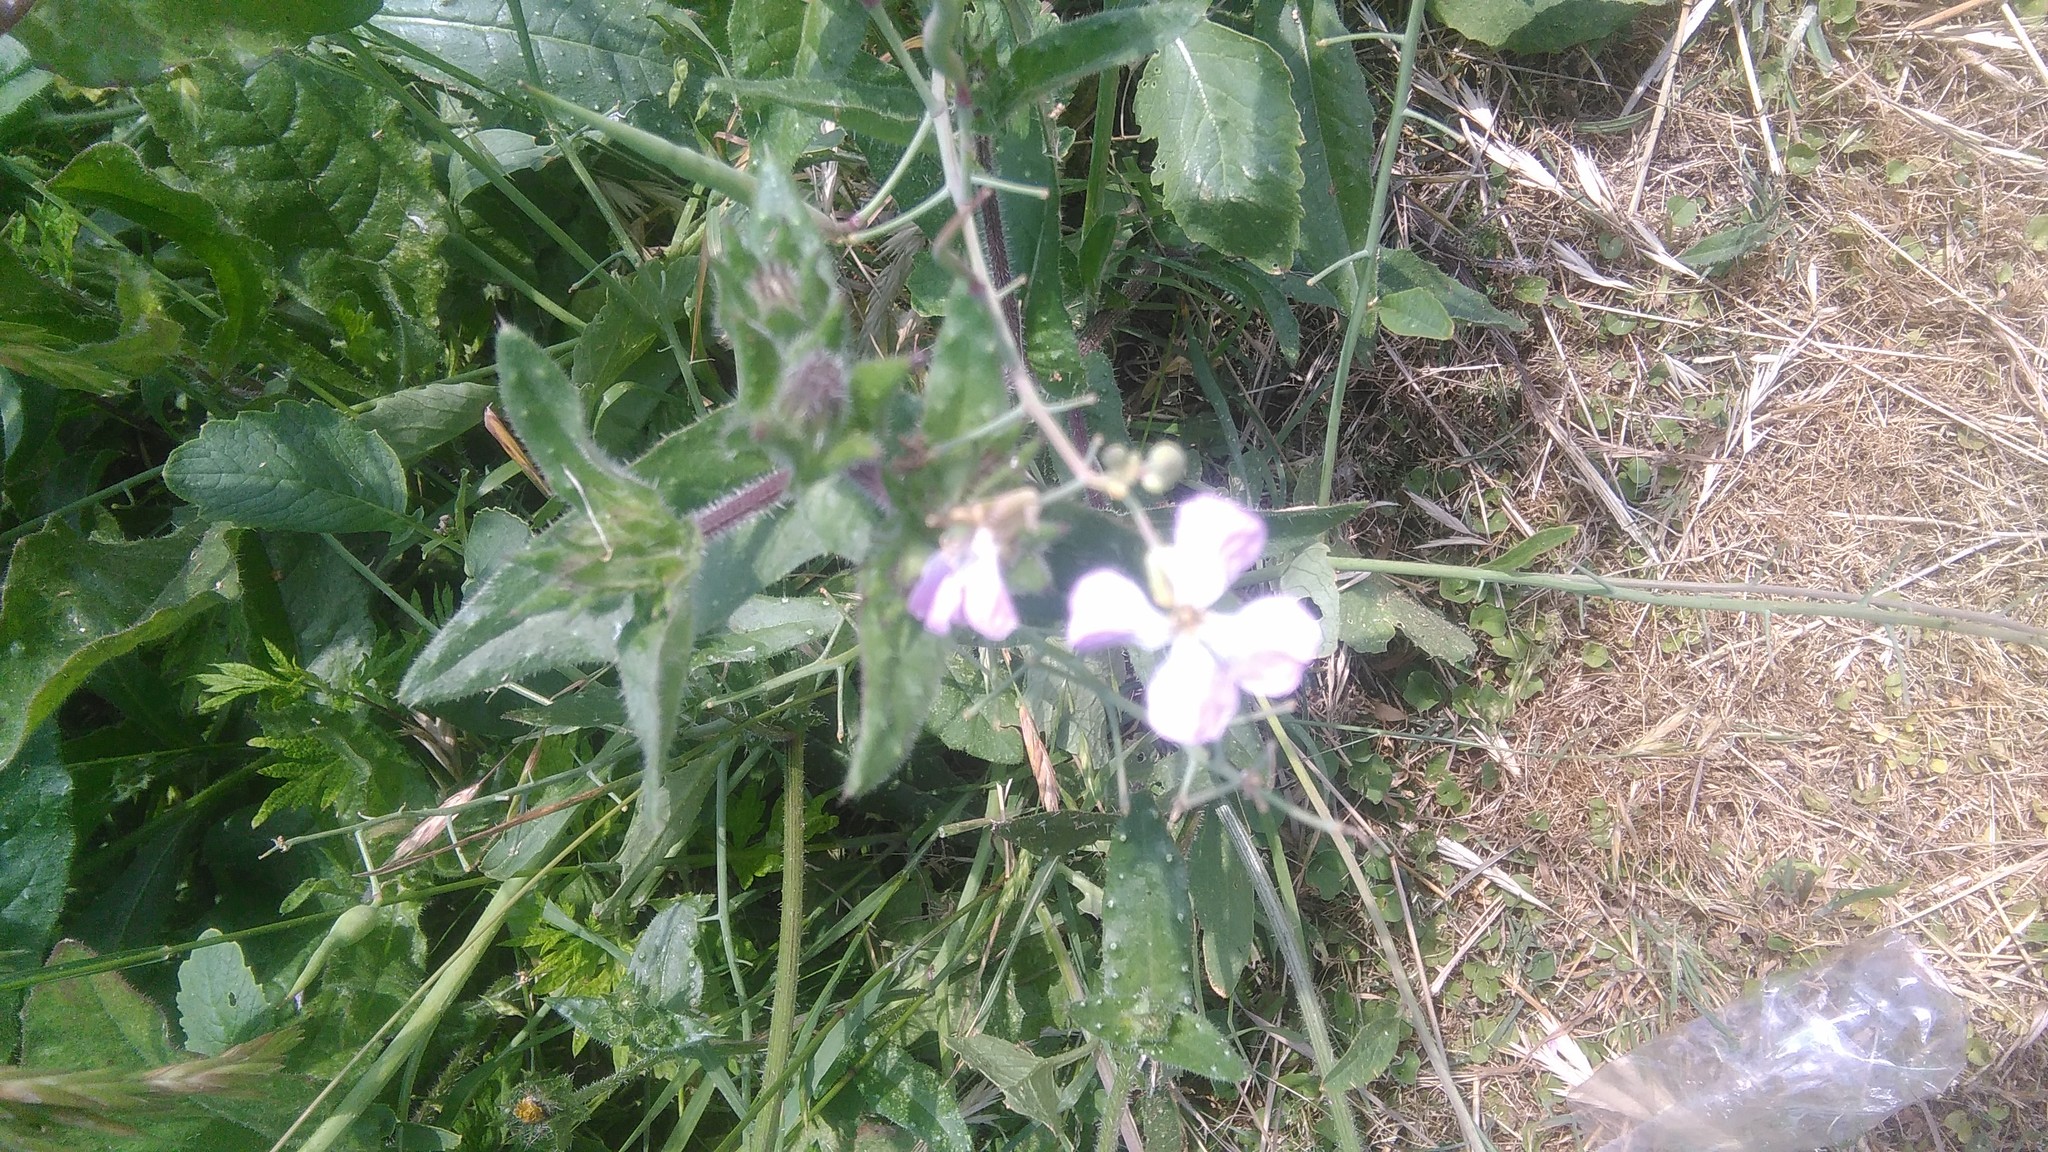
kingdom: Plantae
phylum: Tracheophyta
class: Magnoliopsida
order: Brassicales
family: Brassicaceae
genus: Raphanus
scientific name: Raphanus sativus
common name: Cultivated radish
